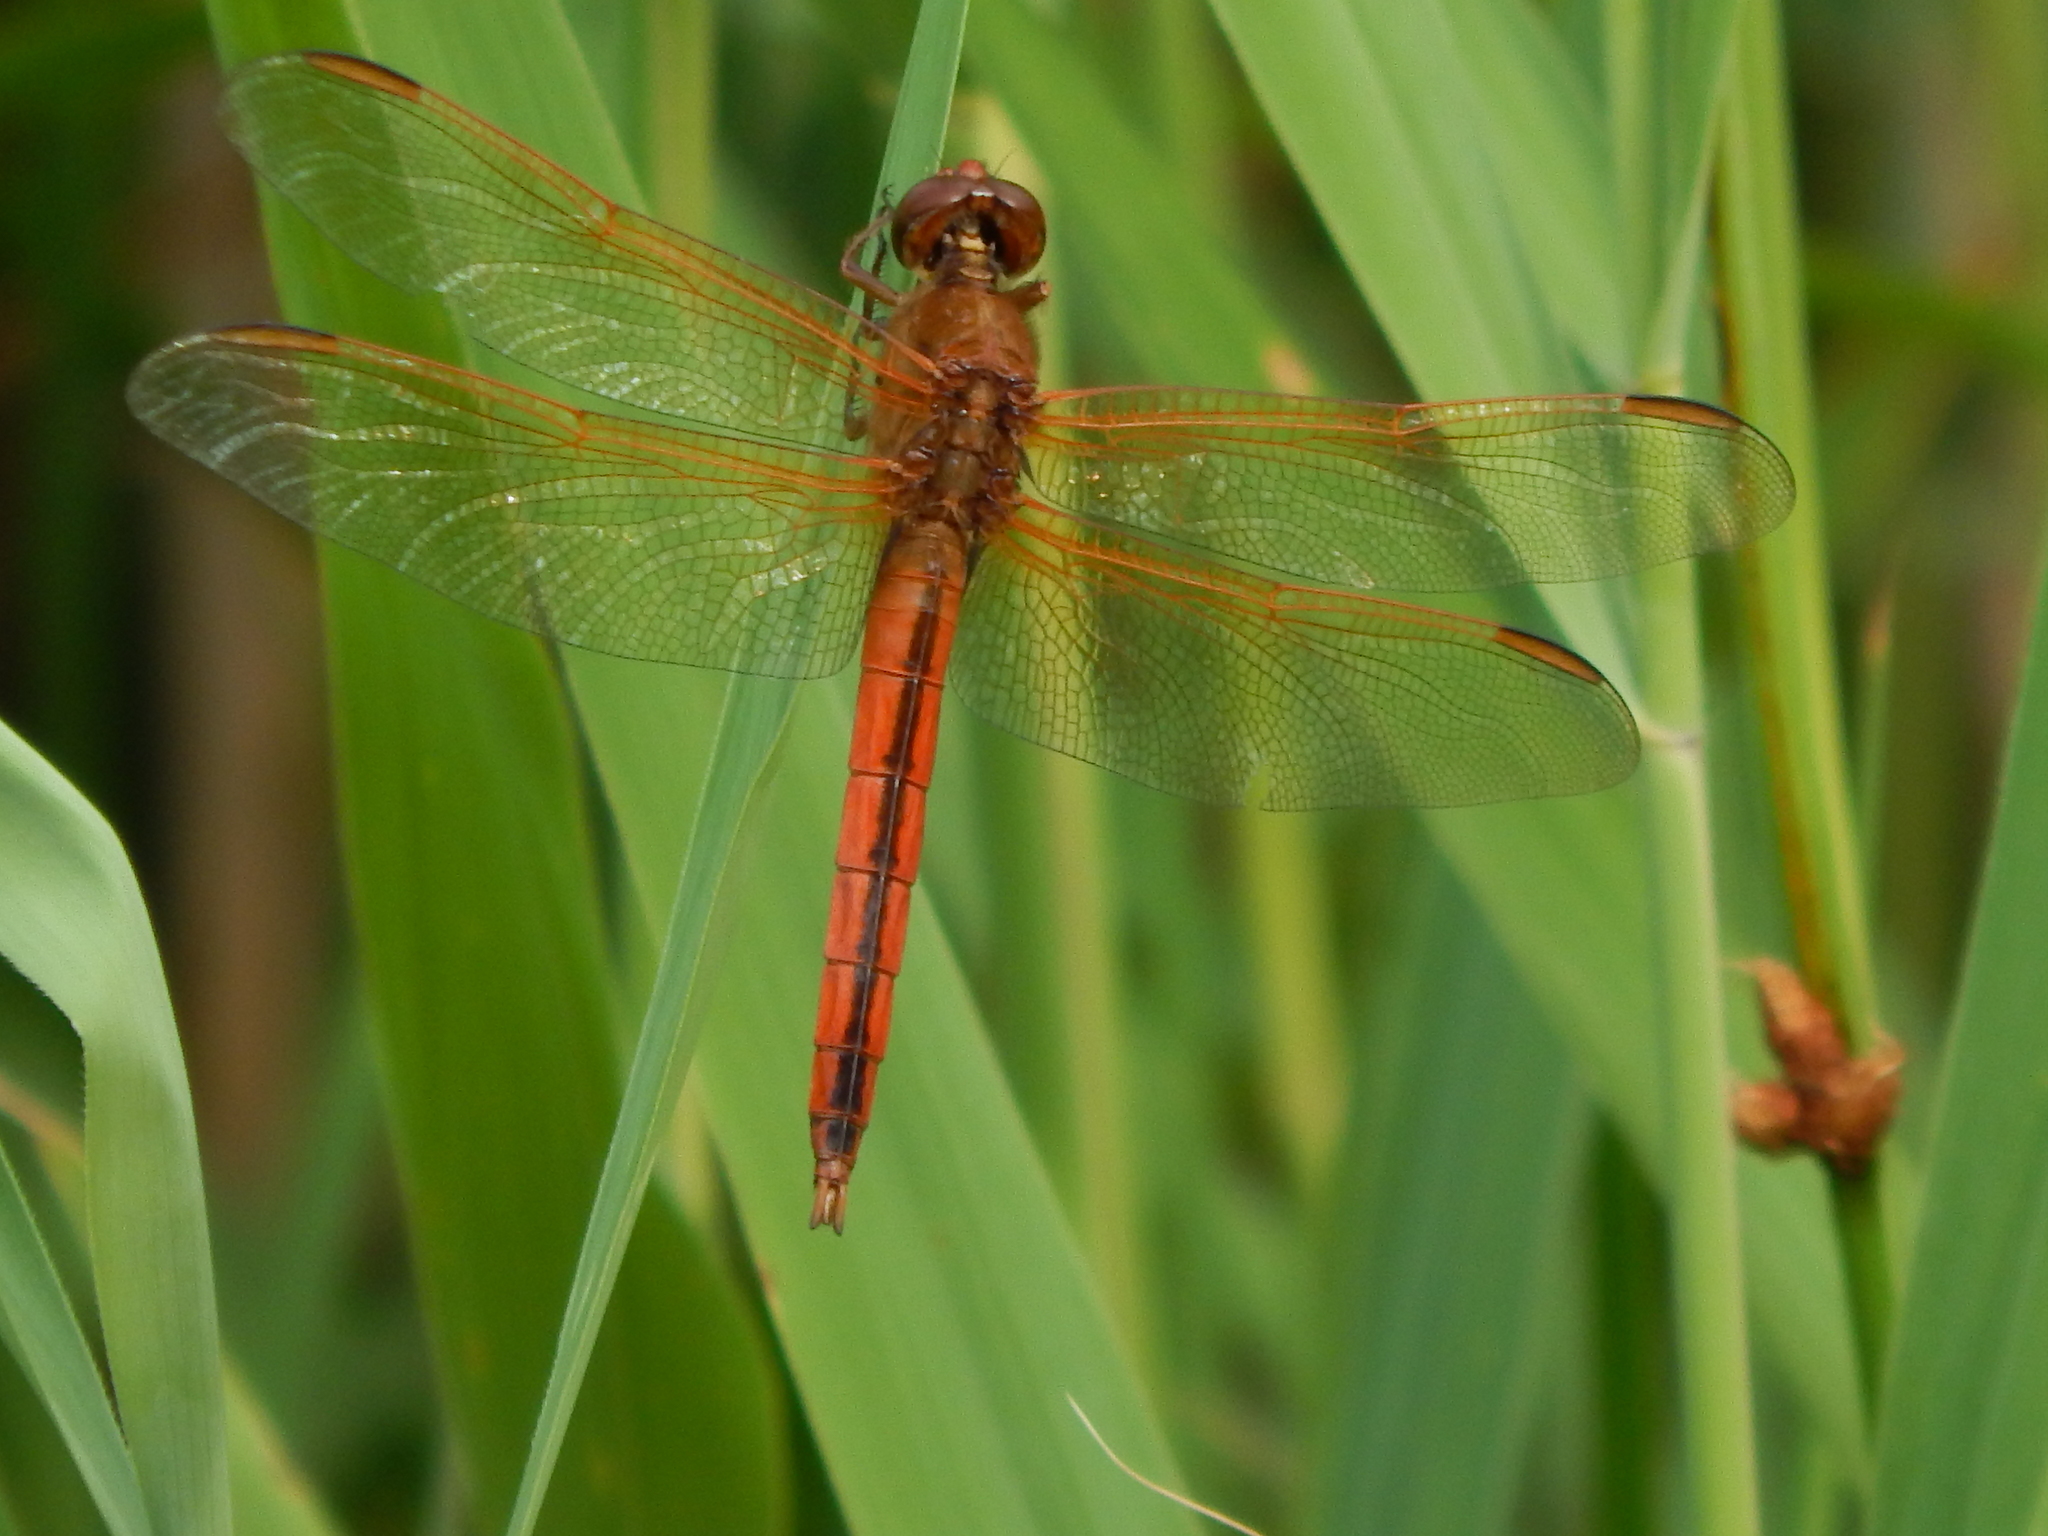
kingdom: Animalia
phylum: Arthropoda
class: Insecta
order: Odonata
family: Libellulidae
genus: Libellula
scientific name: Libellula needhami
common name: Needham's skimmer
